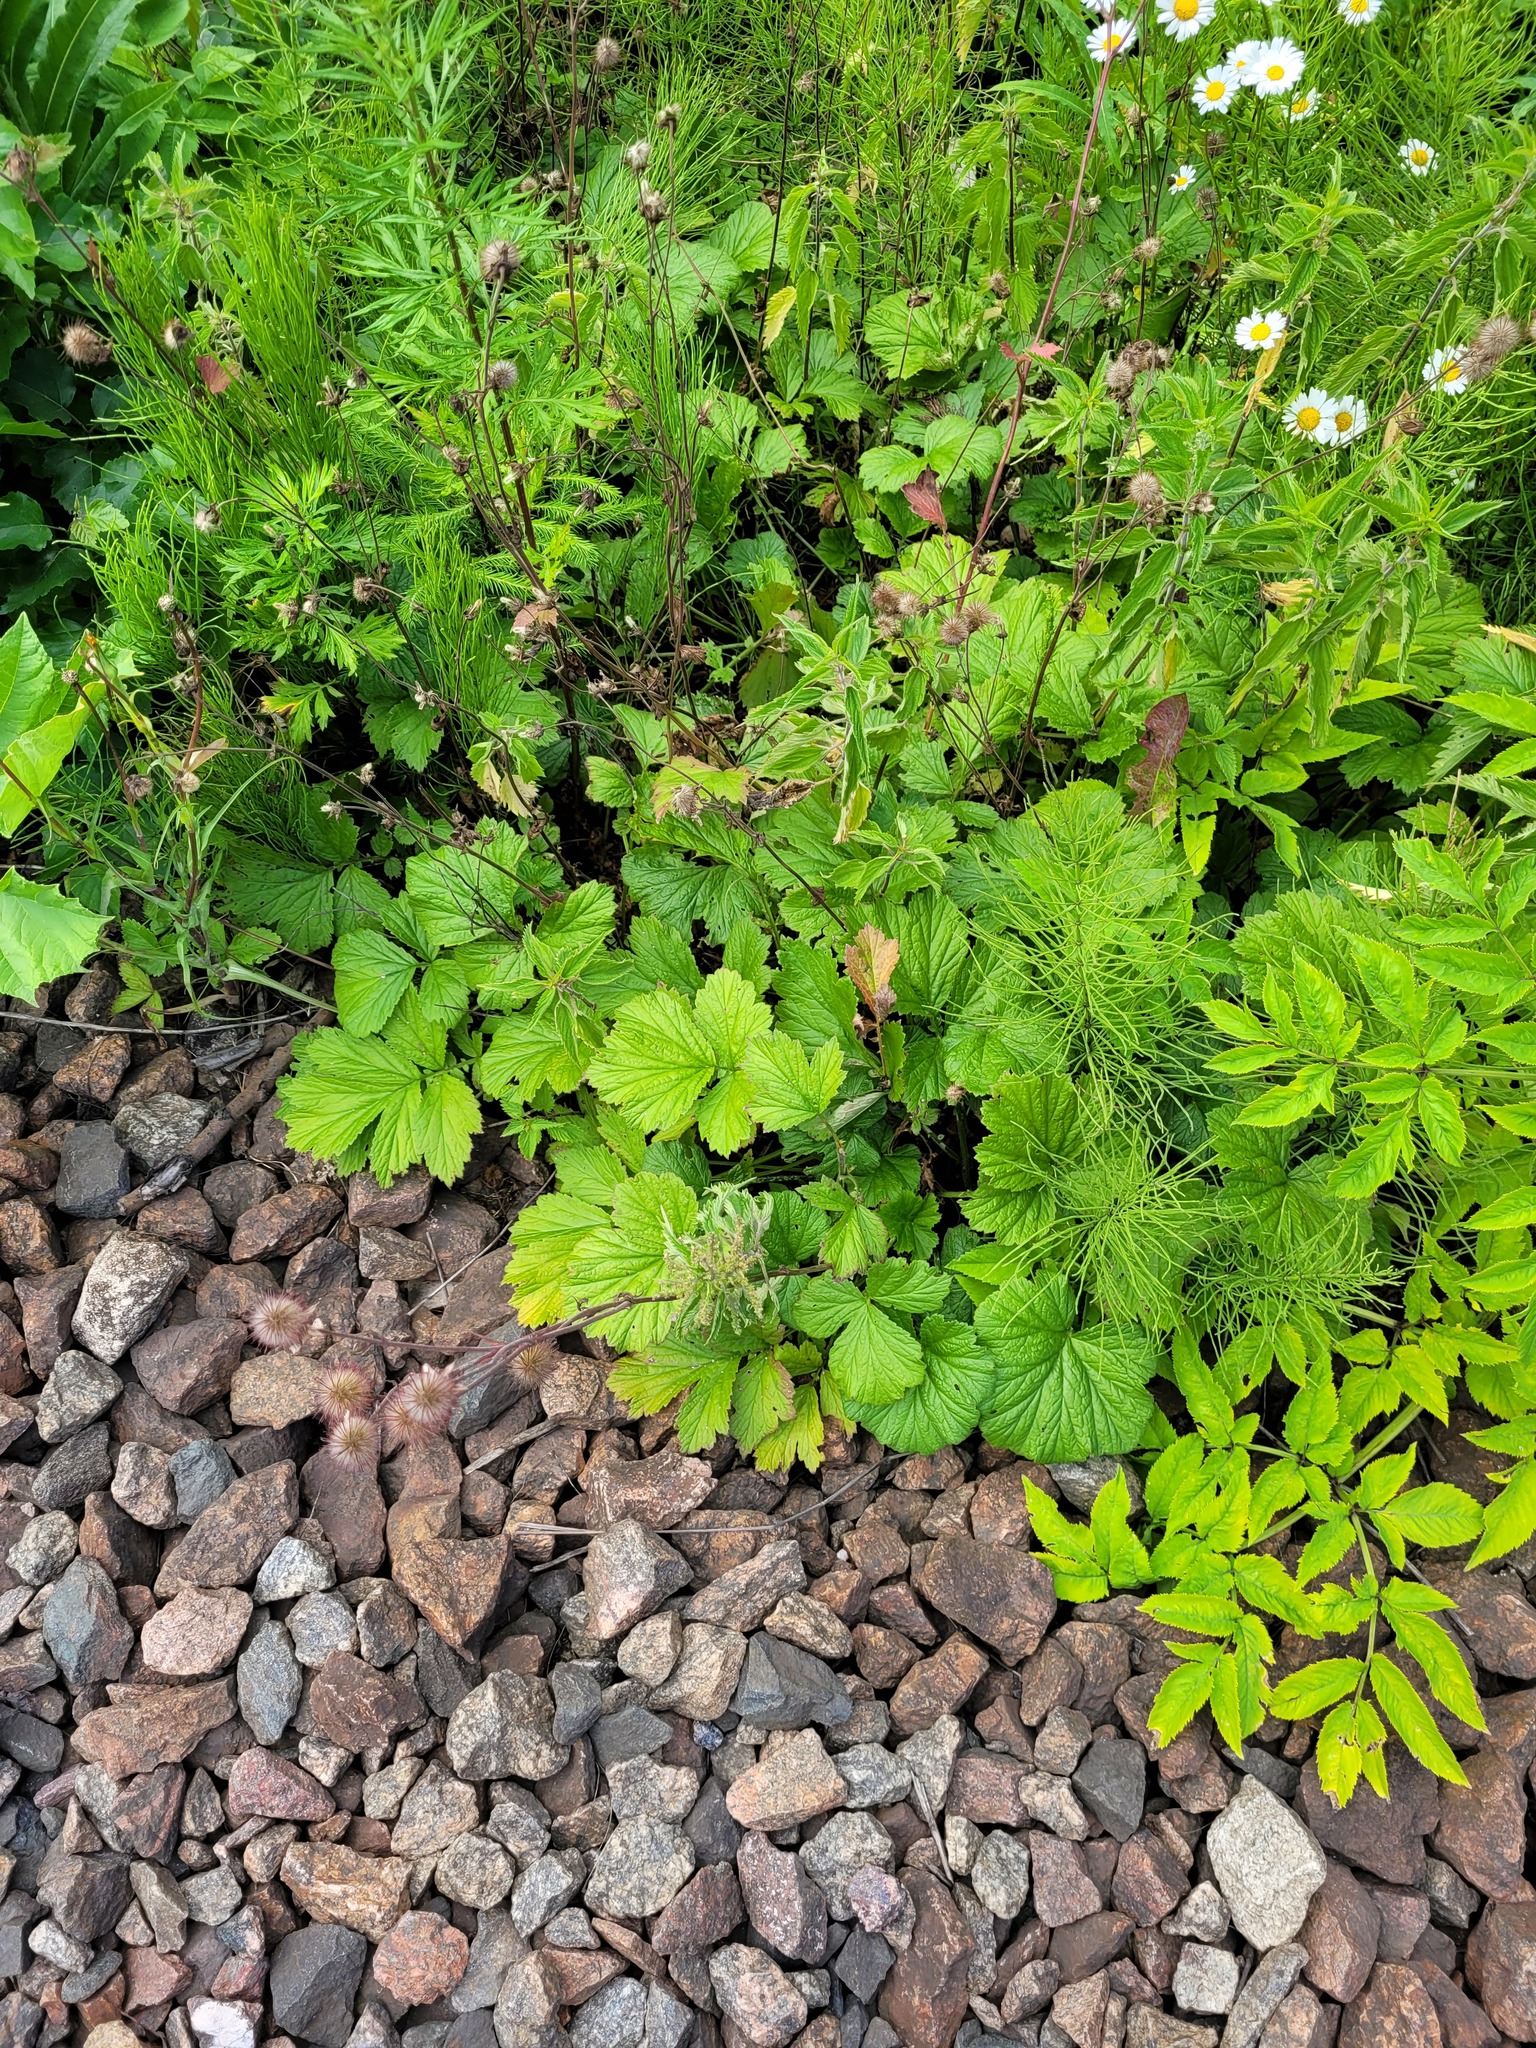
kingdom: Plantae
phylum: Tracheophyta
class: Magnoliopsida
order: Rosales
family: Rosaceae
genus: Geum
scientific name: Geum rivale
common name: Water avens
